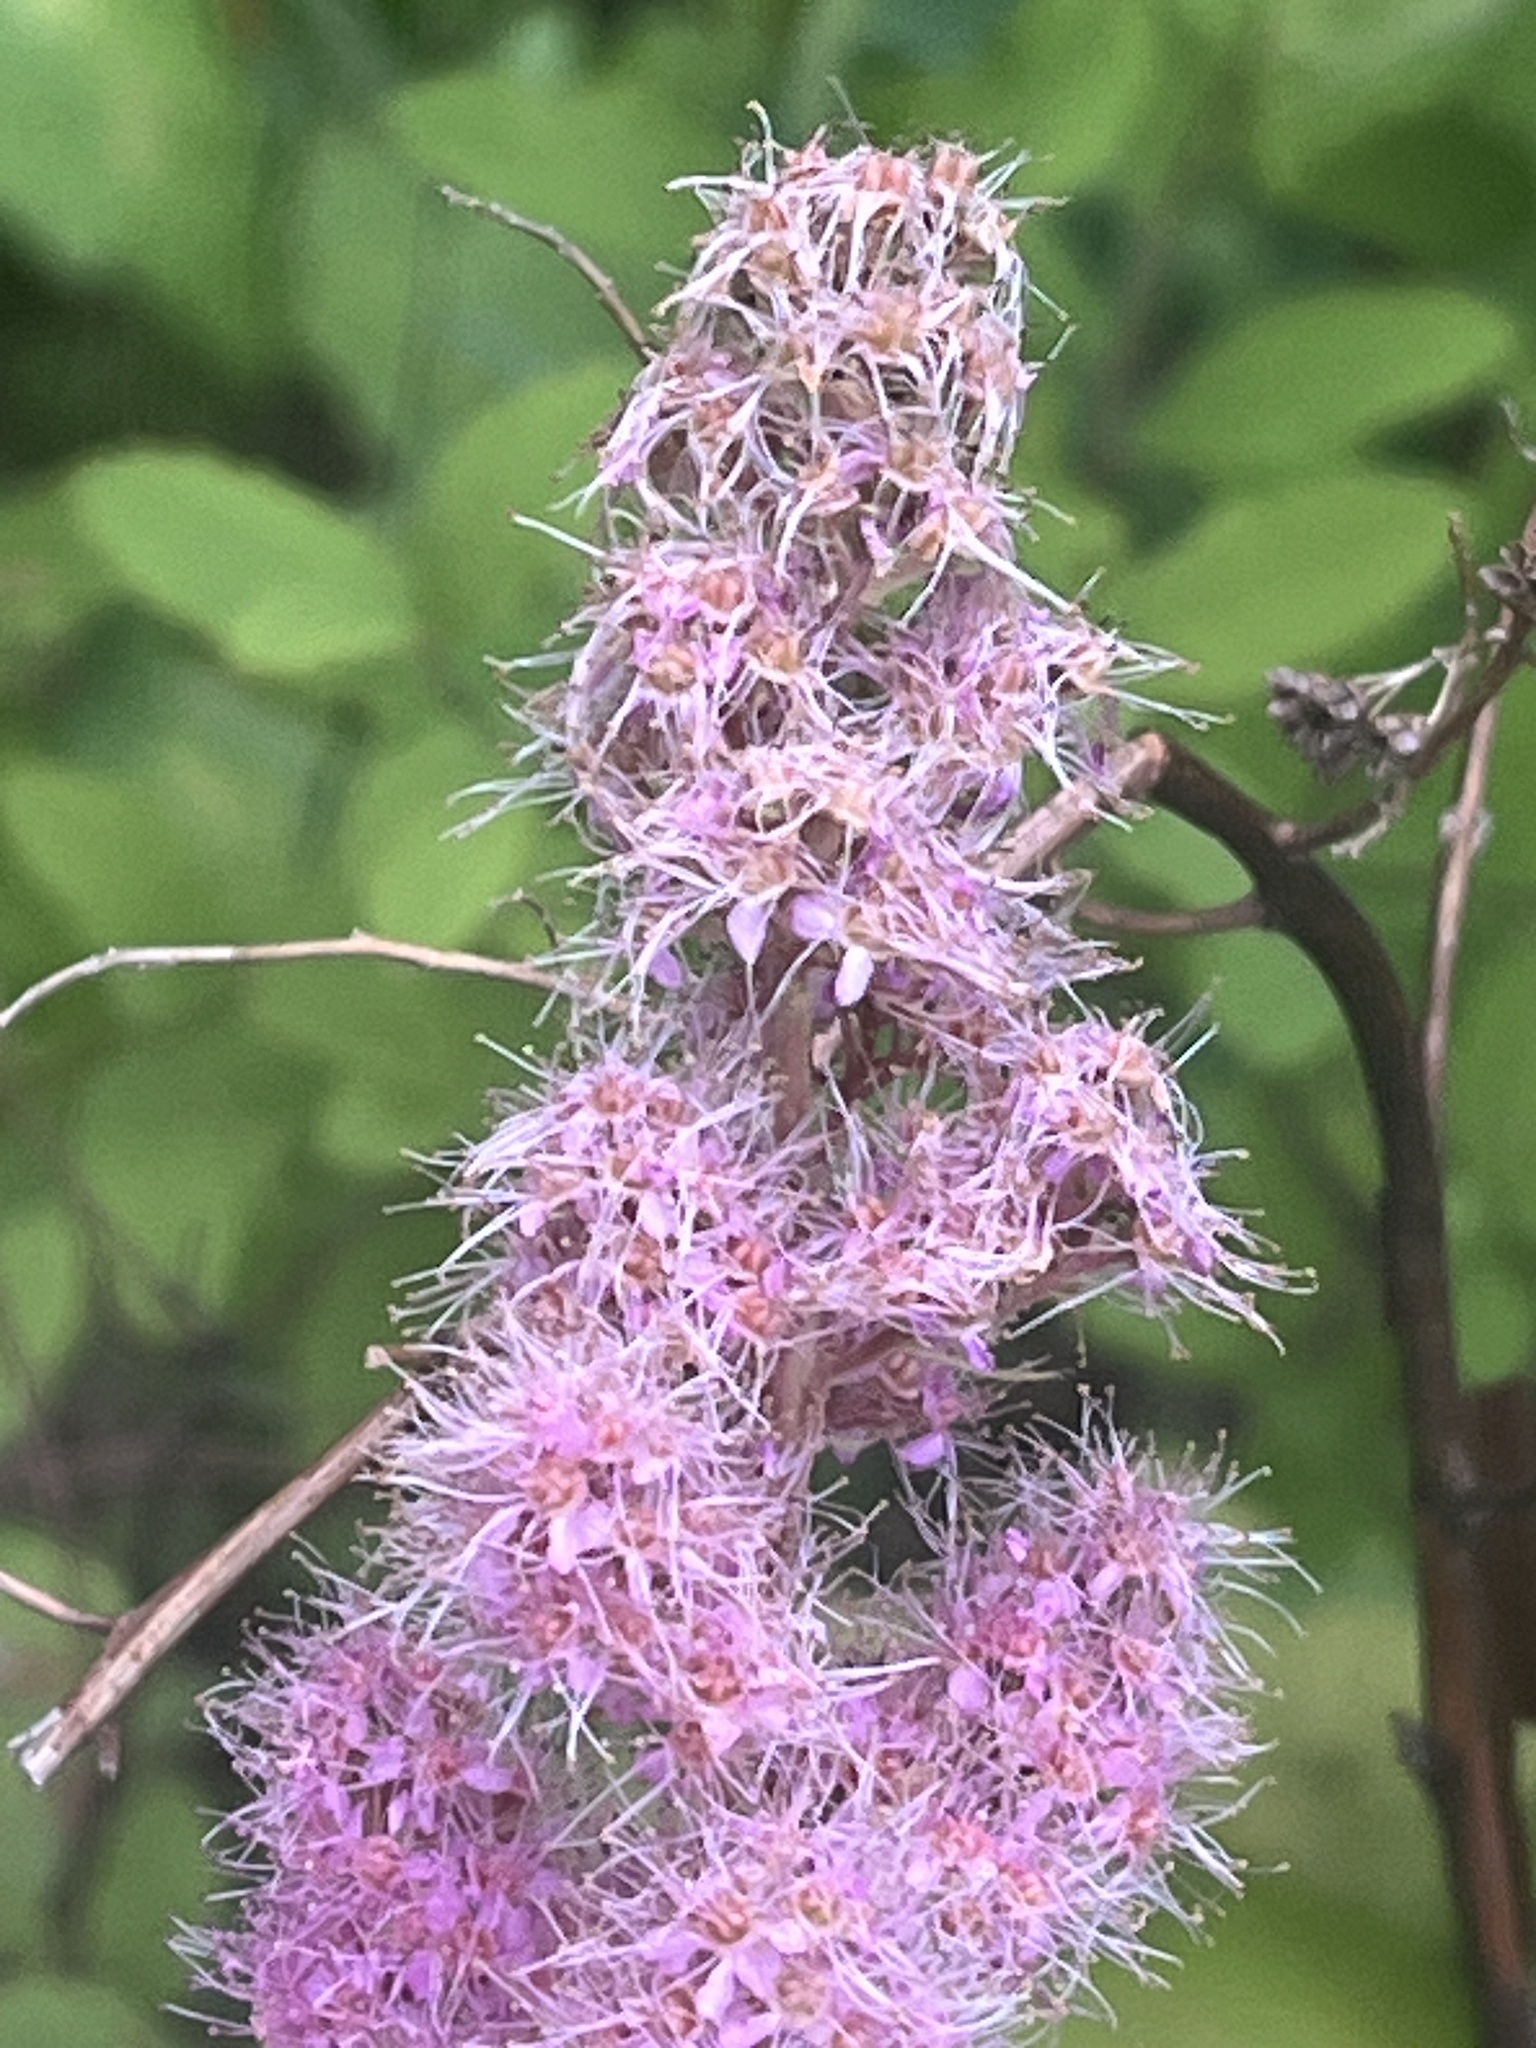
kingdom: Plantae
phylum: Tracheophyta
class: Magnoliopsida
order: Rosales
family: Rosaceae
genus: Spiraea
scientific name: Spiraea douglasii
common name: Steeplebush
